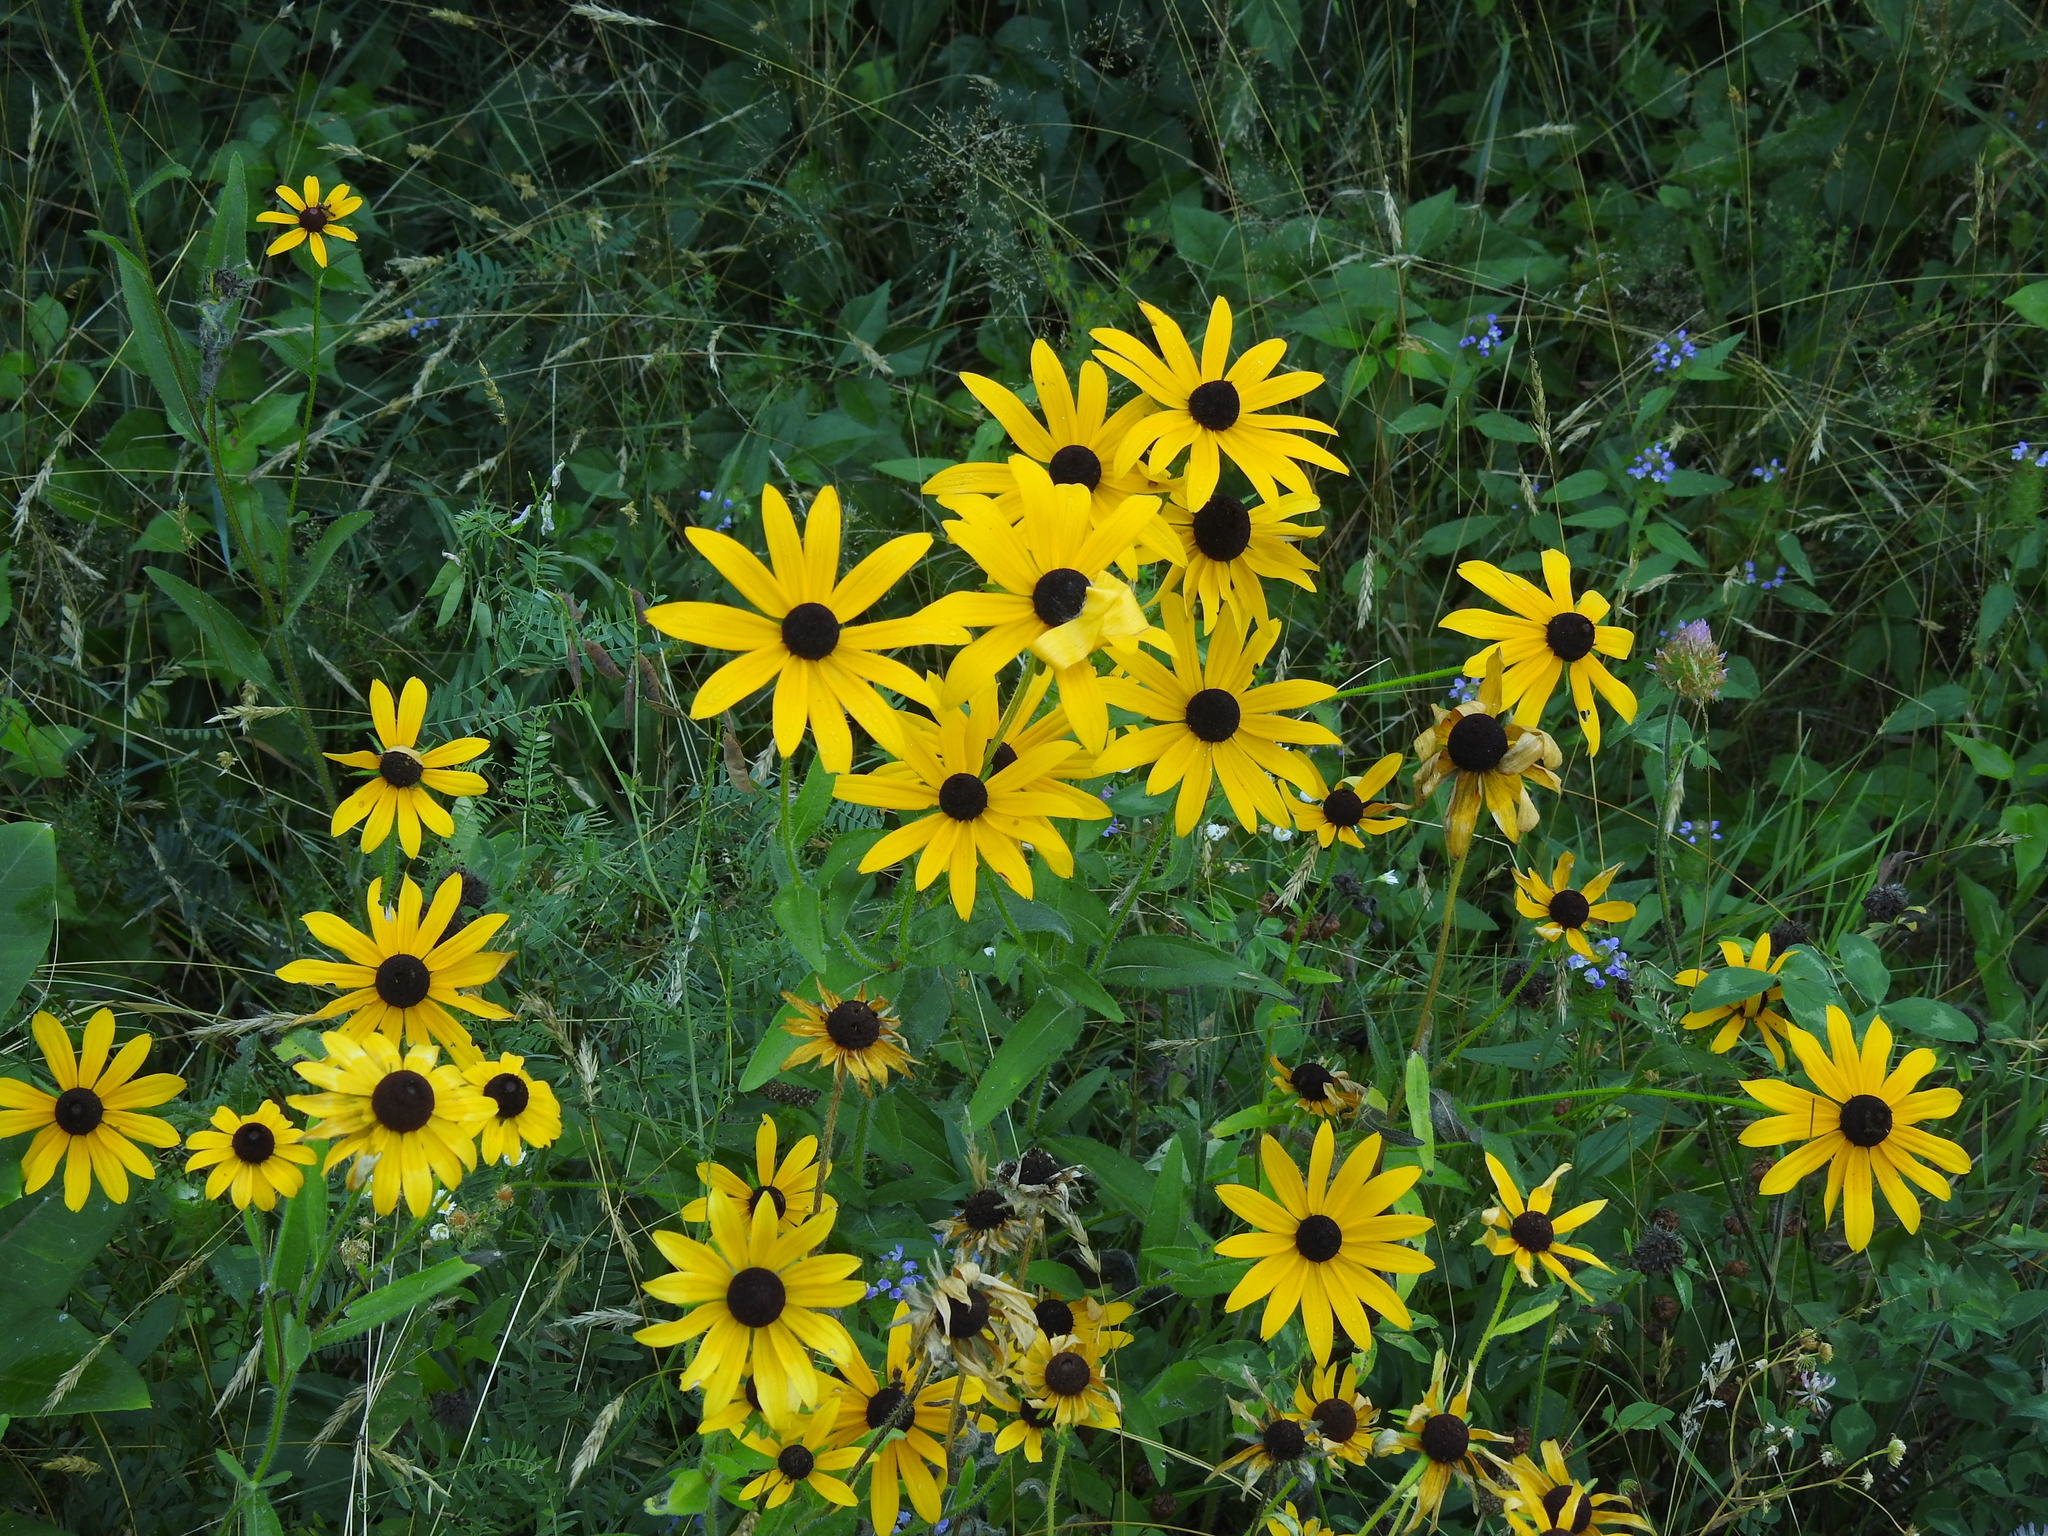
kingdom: Plantae
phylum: Tracheophyta
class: Magnoliopsida
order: Asterales
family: Asteraceae
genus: Rudbeckia
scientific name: Rudbeckia hirta
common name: Black-eyed-susan
